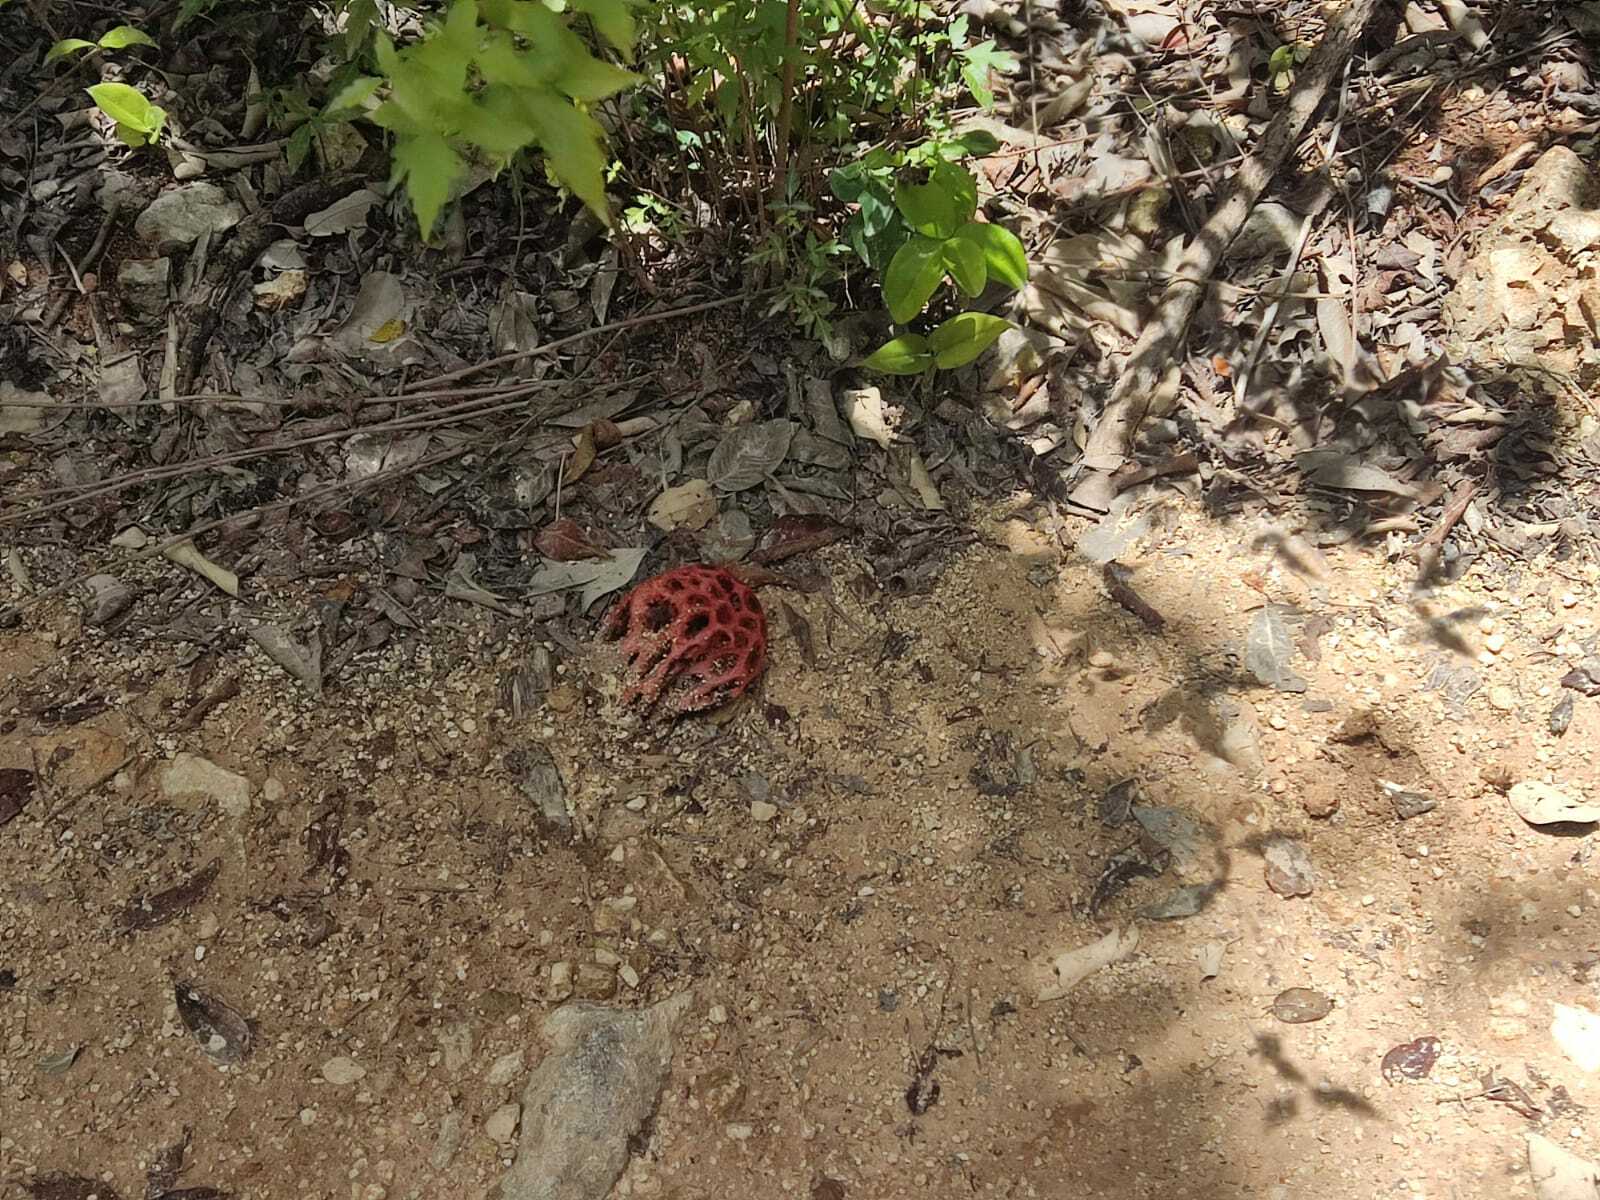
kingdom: Fungi
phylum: Basidiomycota
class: Agaricomycetes
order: Phallales
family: Phallaceae
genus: Clathrus
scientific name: Clathrus crispatus
